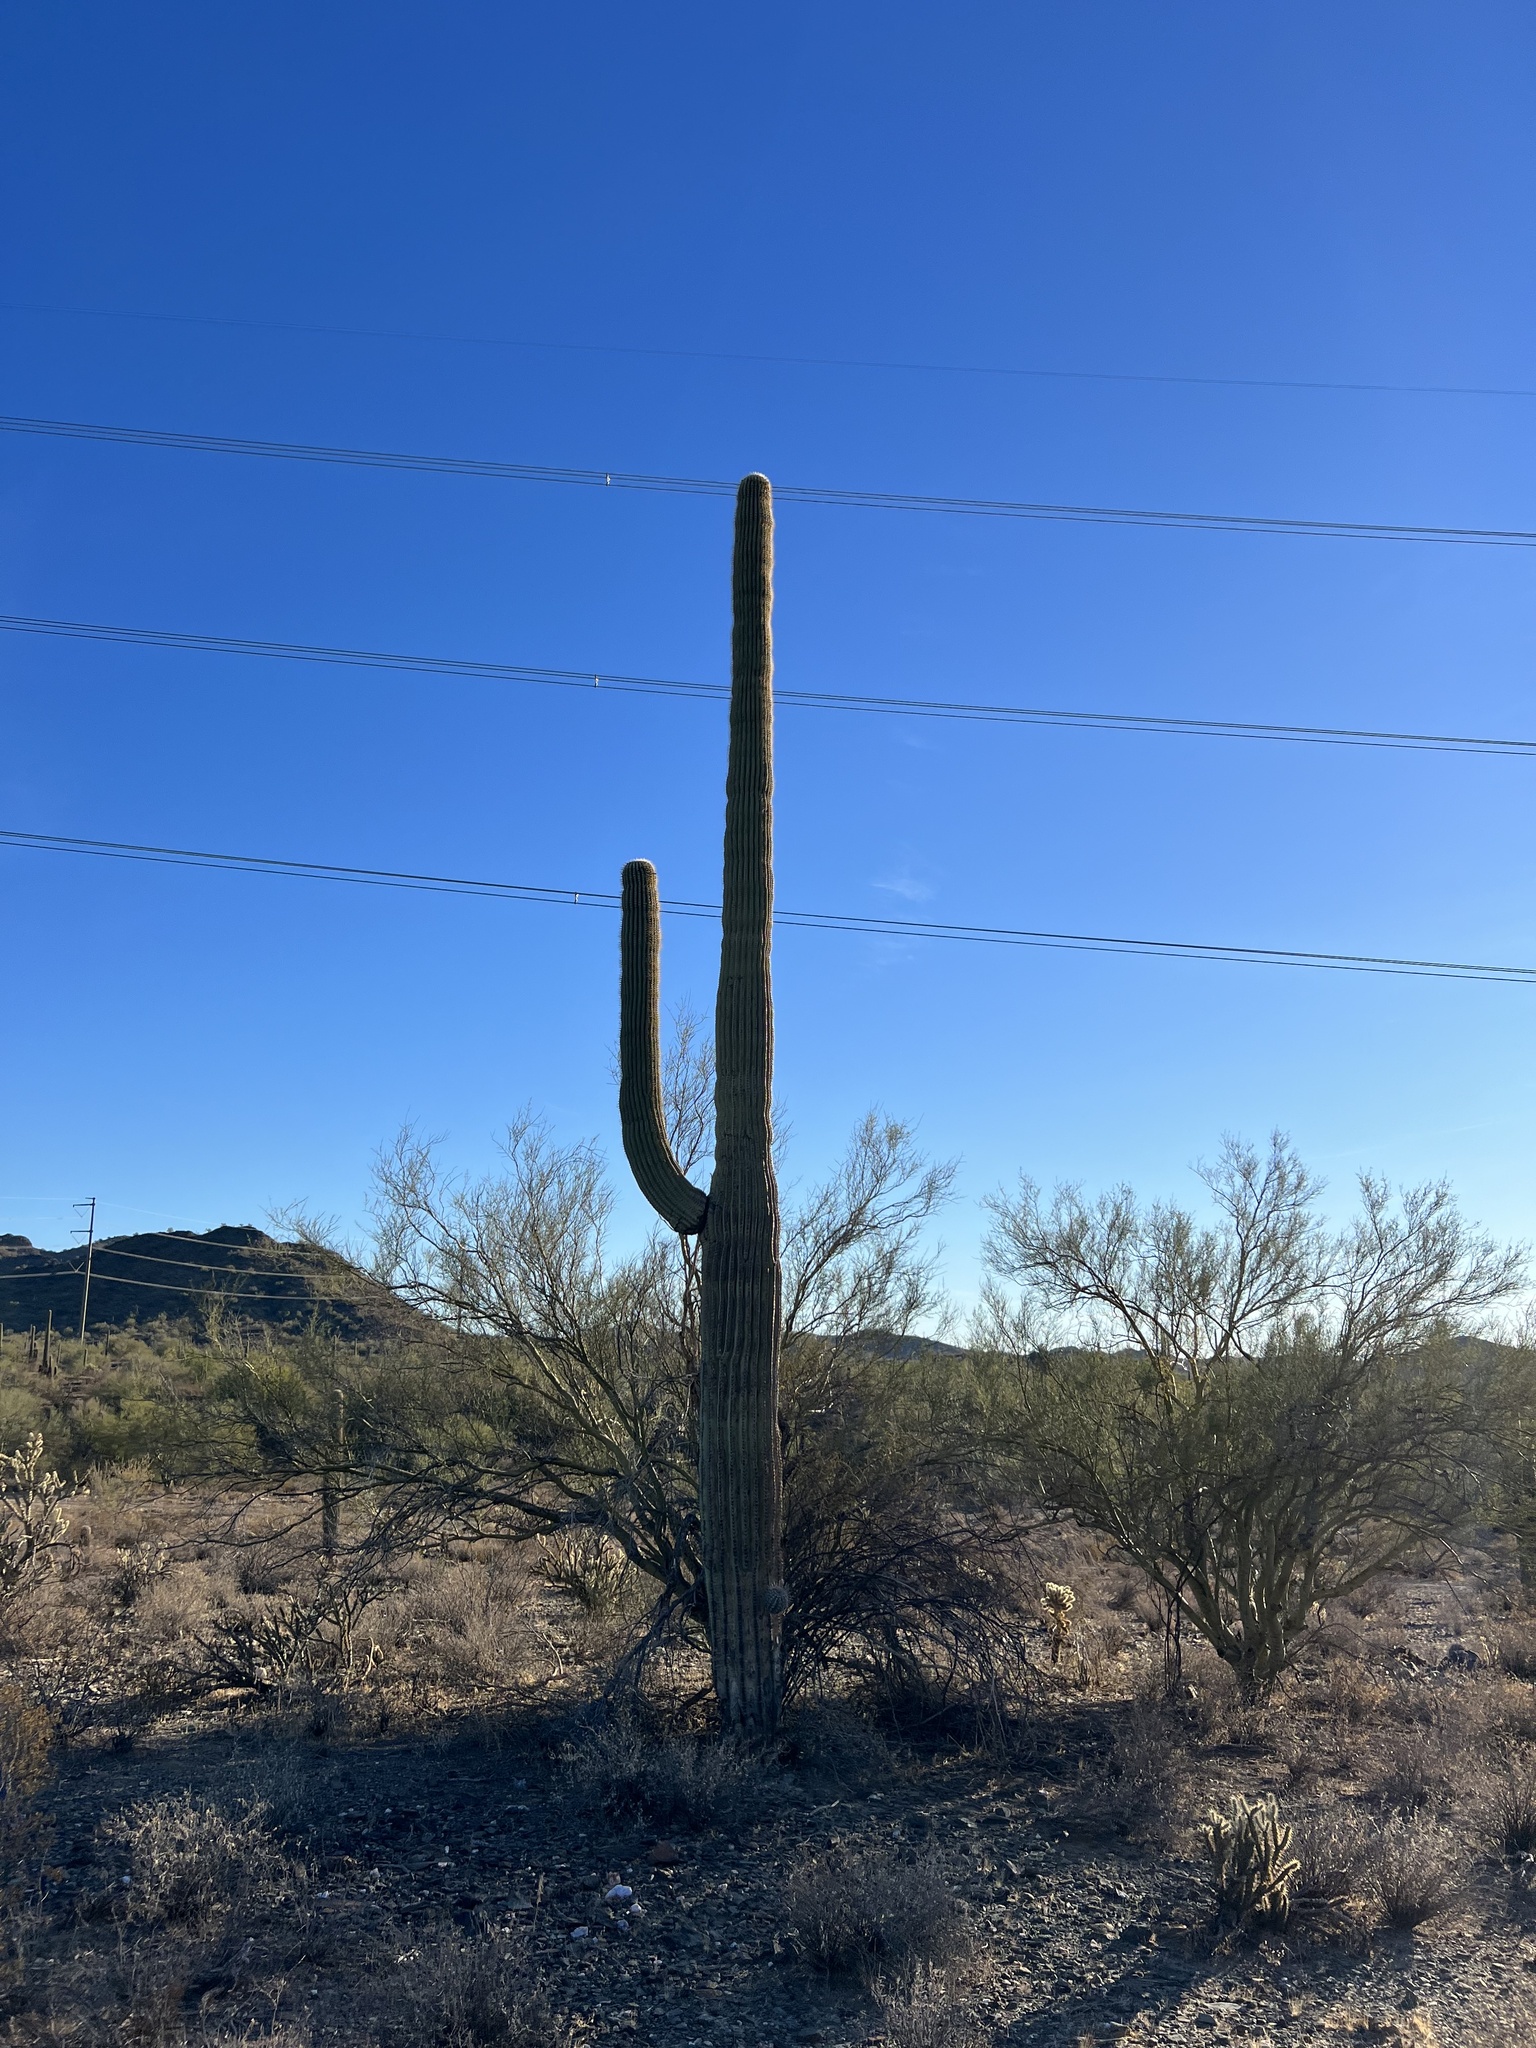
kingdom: Plantae
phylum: Tracheophyta
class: Magnoliopsida
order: Caryophyllales
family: Cactaceae
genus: Carnegiea
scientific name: Carnegiea gigantea
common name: Saguaro
